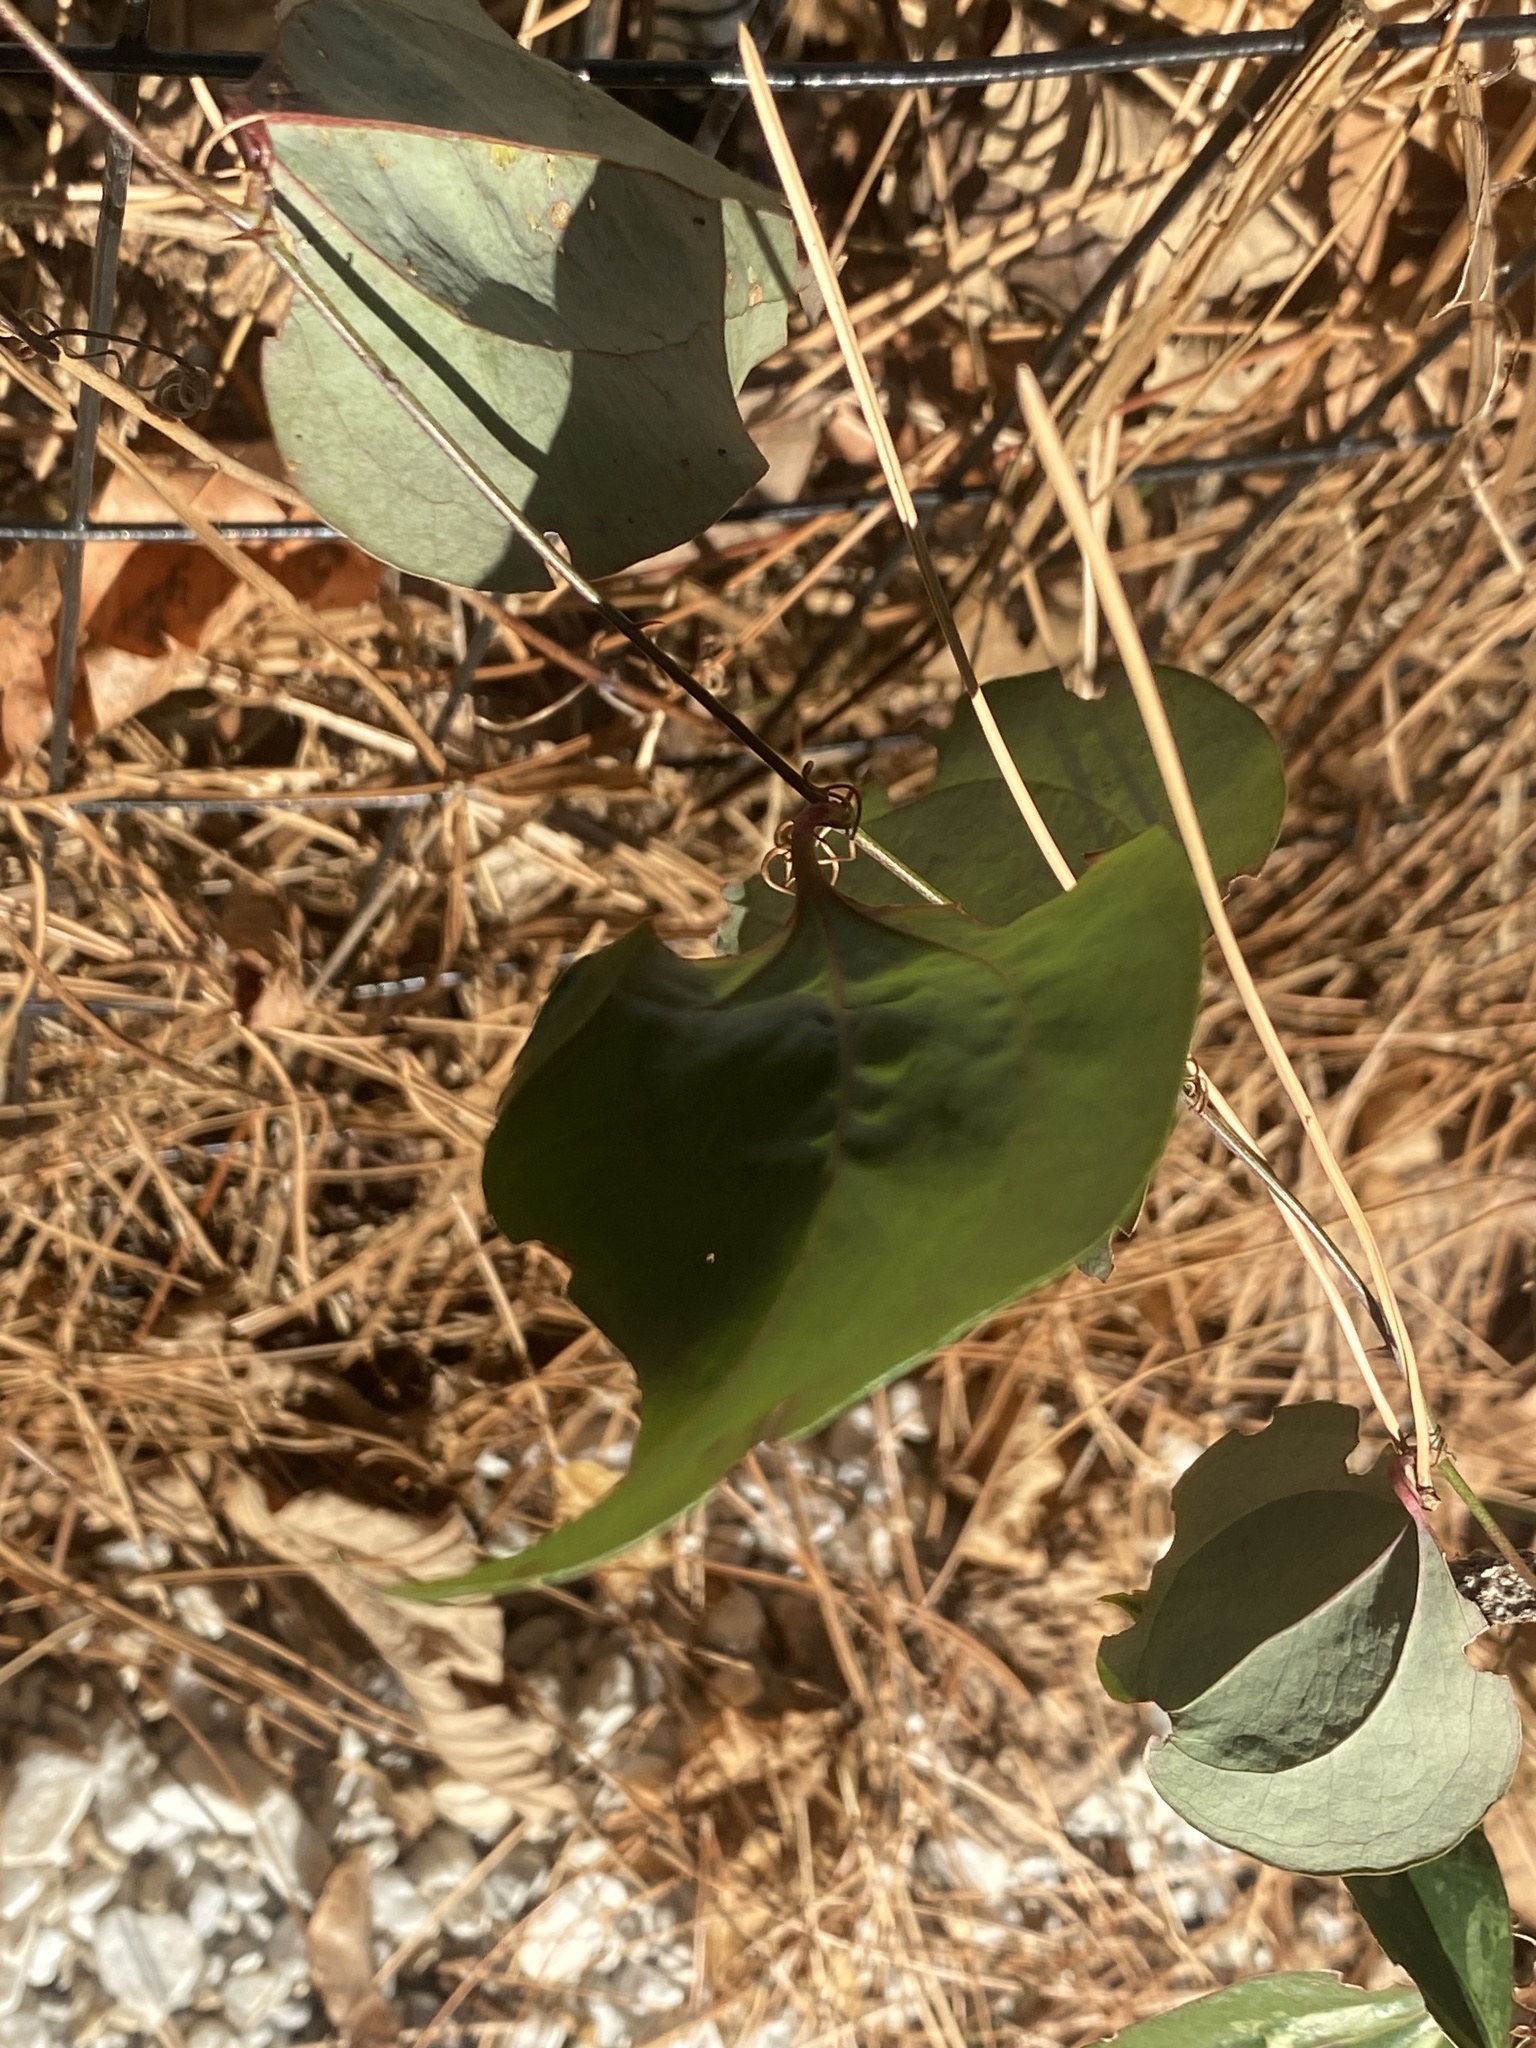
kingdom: Plantae
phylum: Tracheophyta
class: Liliopsida
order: Liliales
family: Smilacaceae
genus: Smilax
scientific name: Smilax glauca
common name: Cat greenbrier
